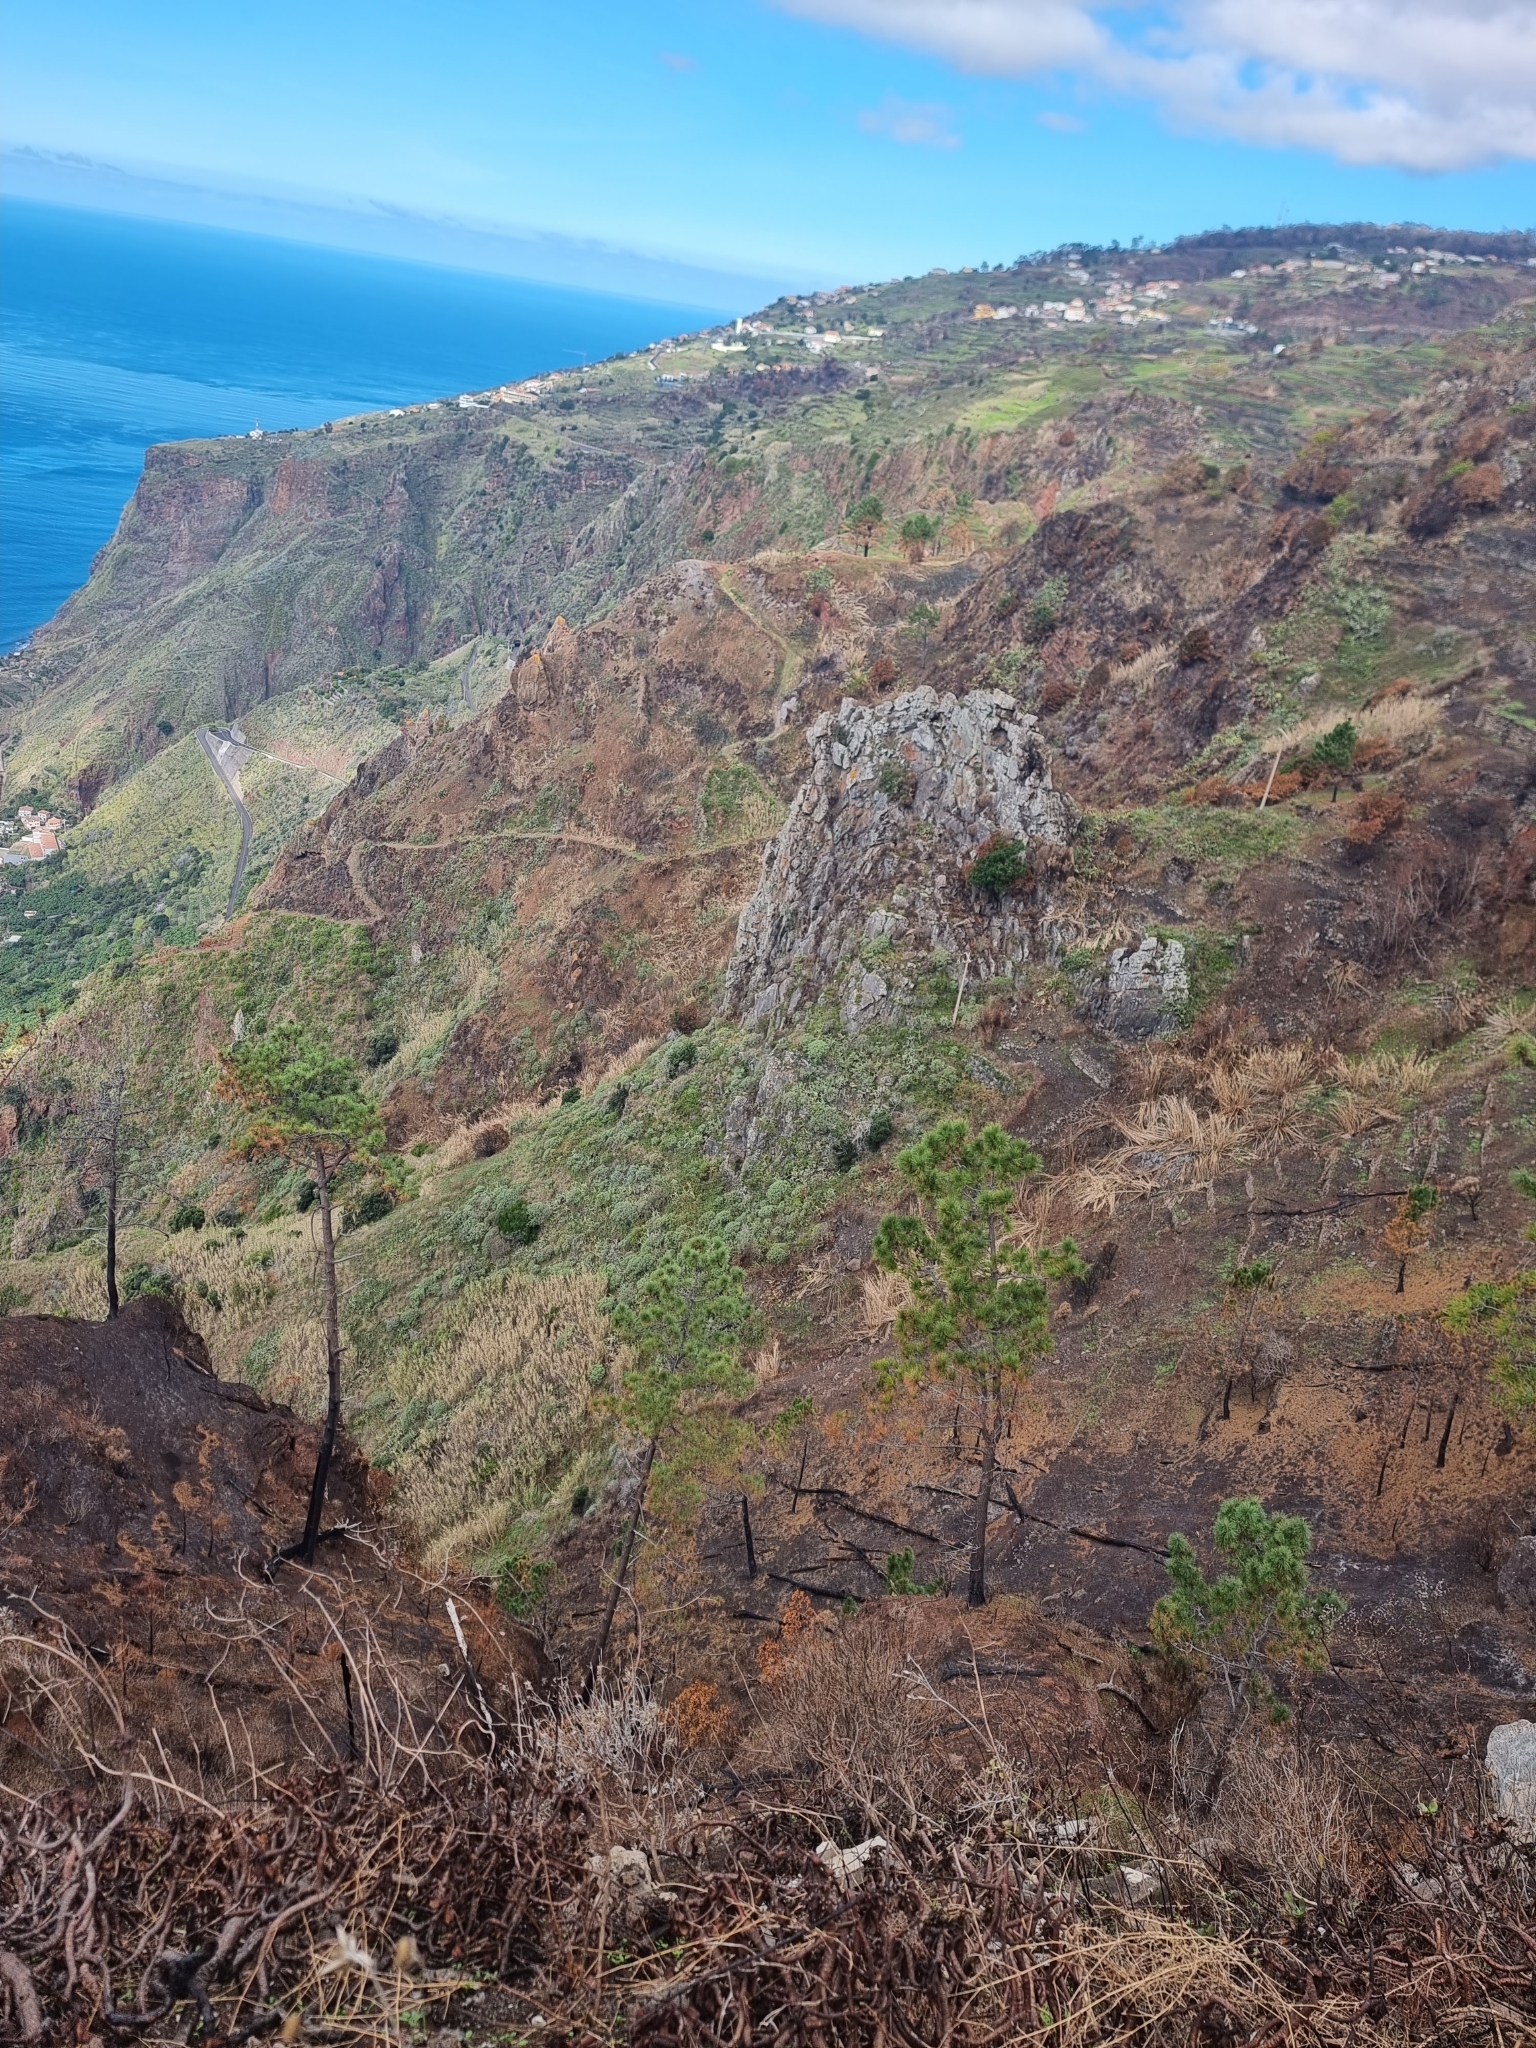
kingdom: Plantae
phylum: Tracheophyta
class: Pinopsida
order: Pinales
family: Pinaceae
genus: Pinus
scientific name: Pinus pinaster
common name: Maritime pine
